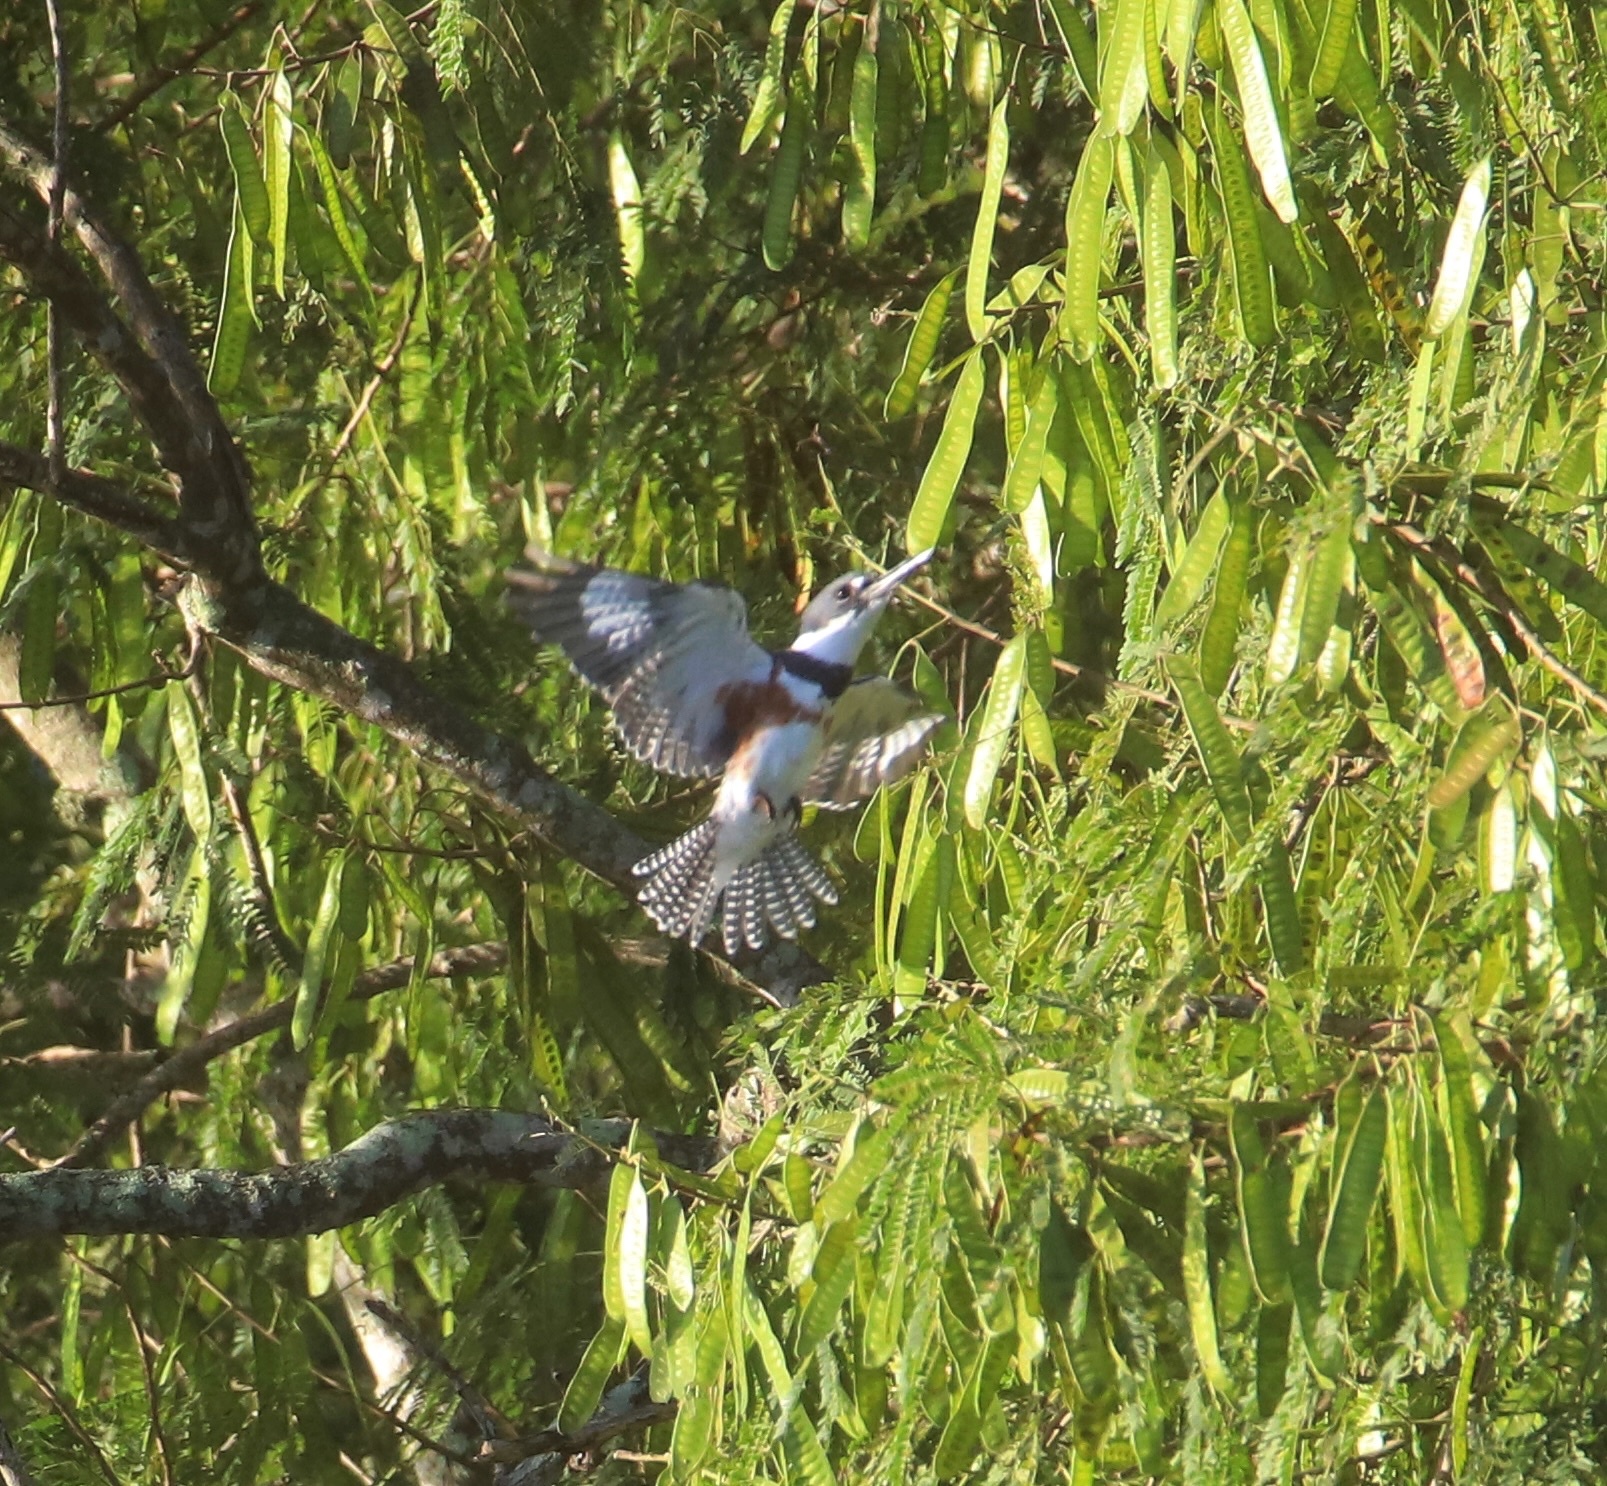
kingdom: Animalia
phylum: Chordata
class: Aves
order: Coraciiformes
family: Alcedinidae
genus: Megaceryle
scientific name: Megaceryle alcyon
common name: Belted kingfisher
